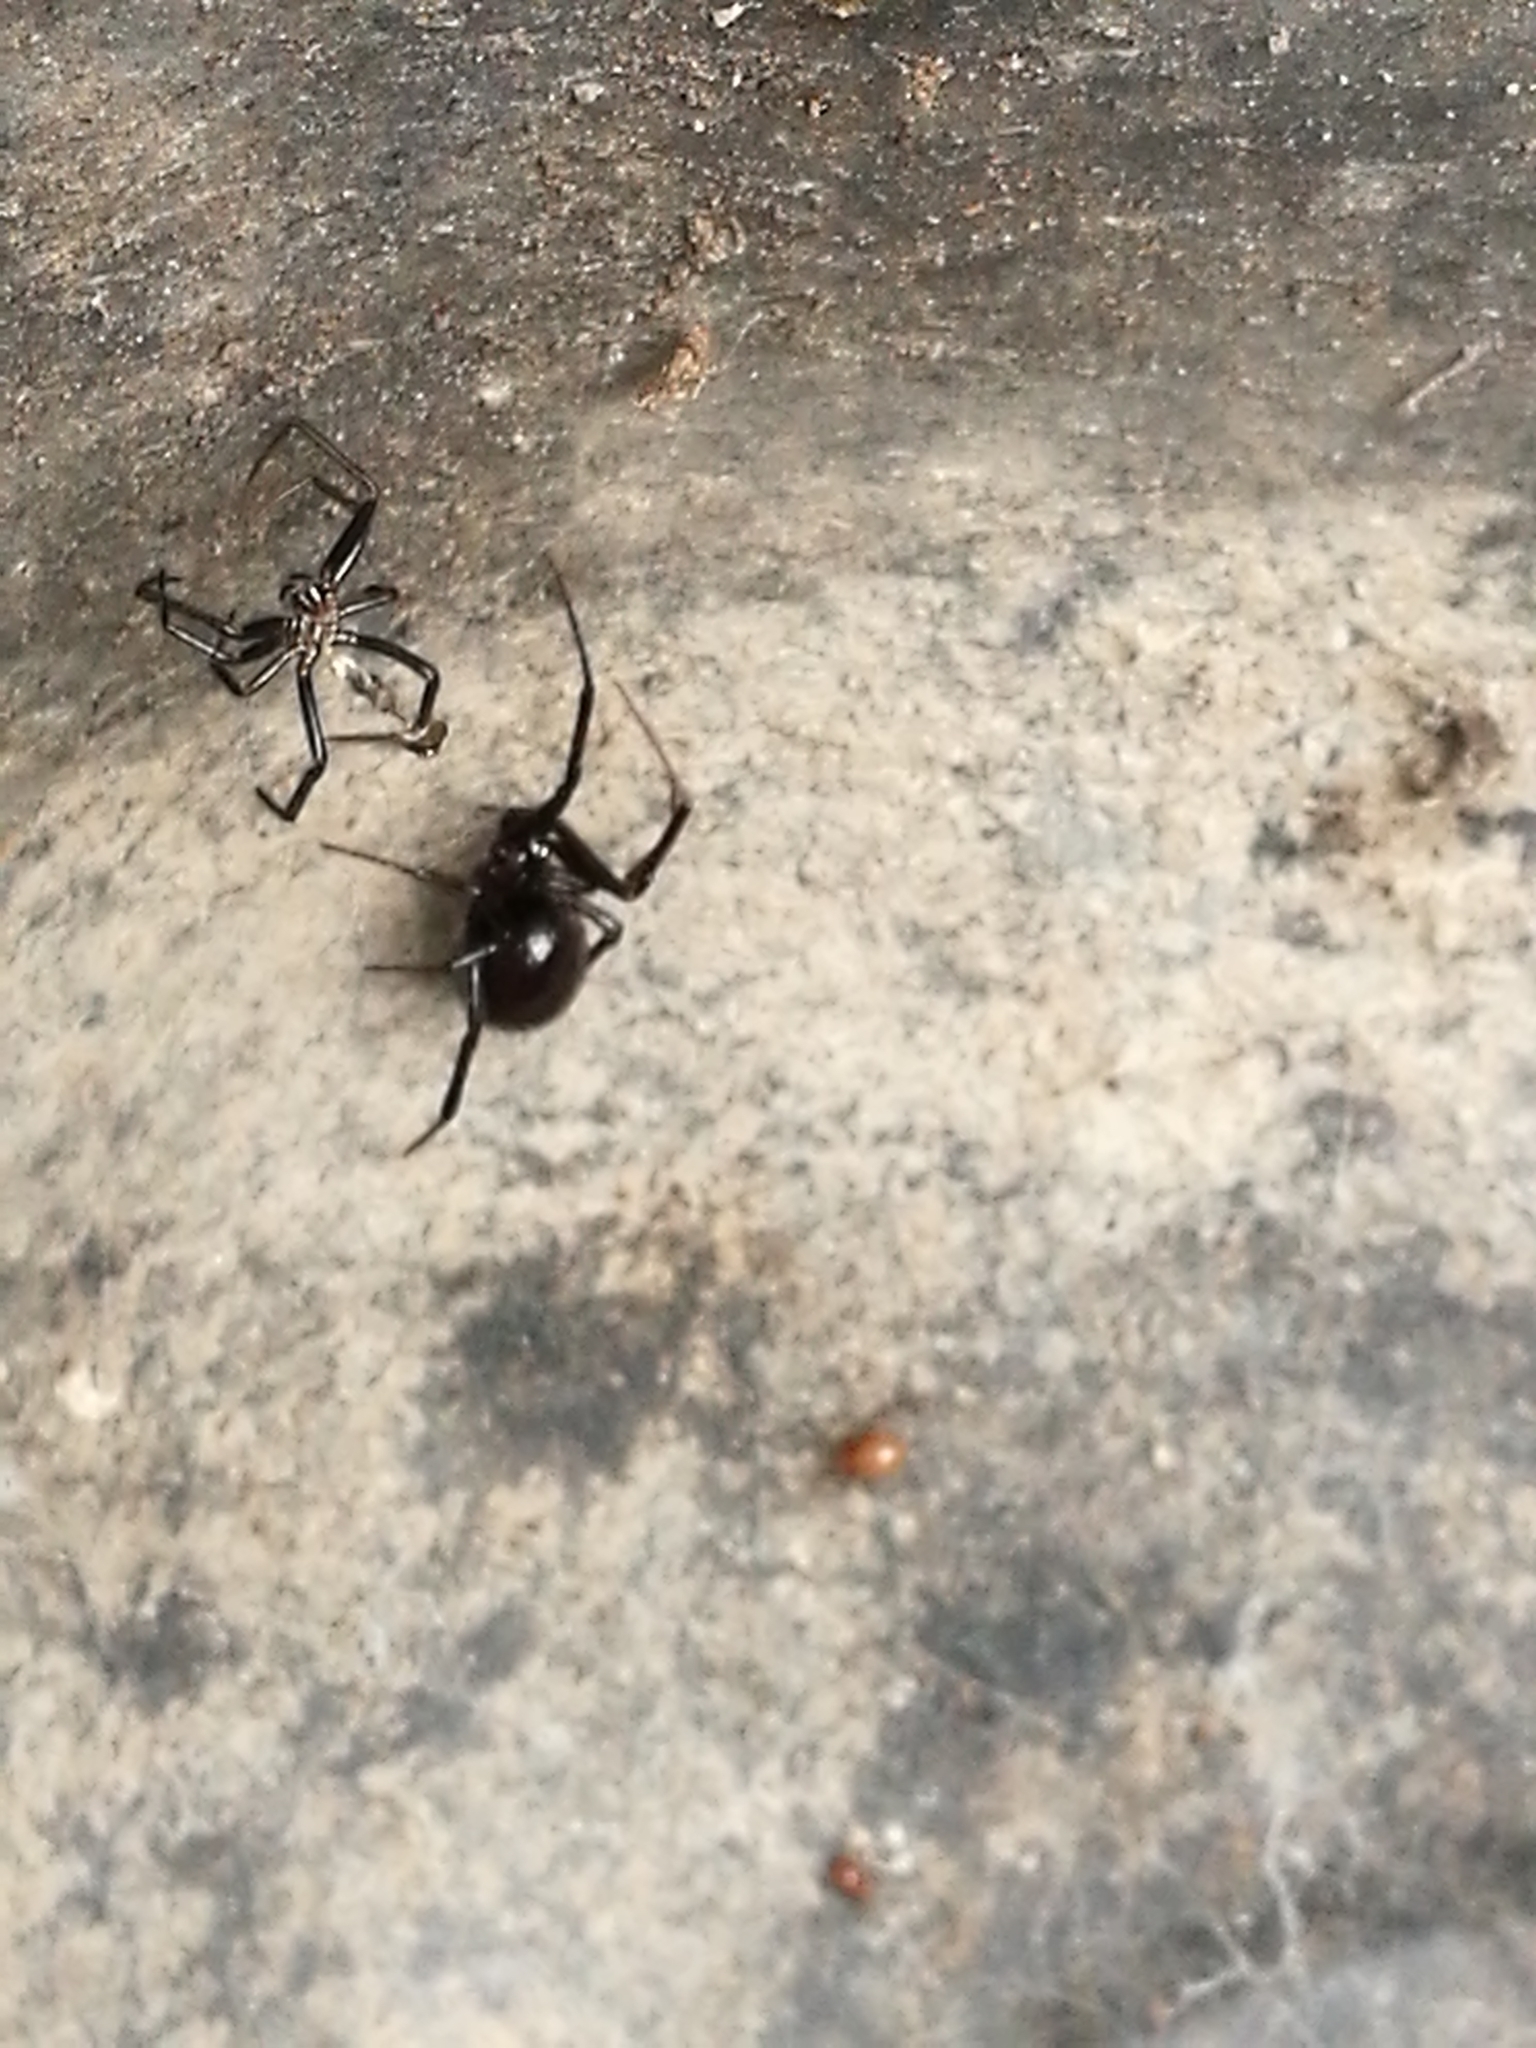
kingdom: Animalia
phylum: Arthropoda
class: Arachnida
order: Araneae
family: Theridiidae
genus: Steatoda
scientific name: Steatoda capensis
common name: Cobweb weaver
